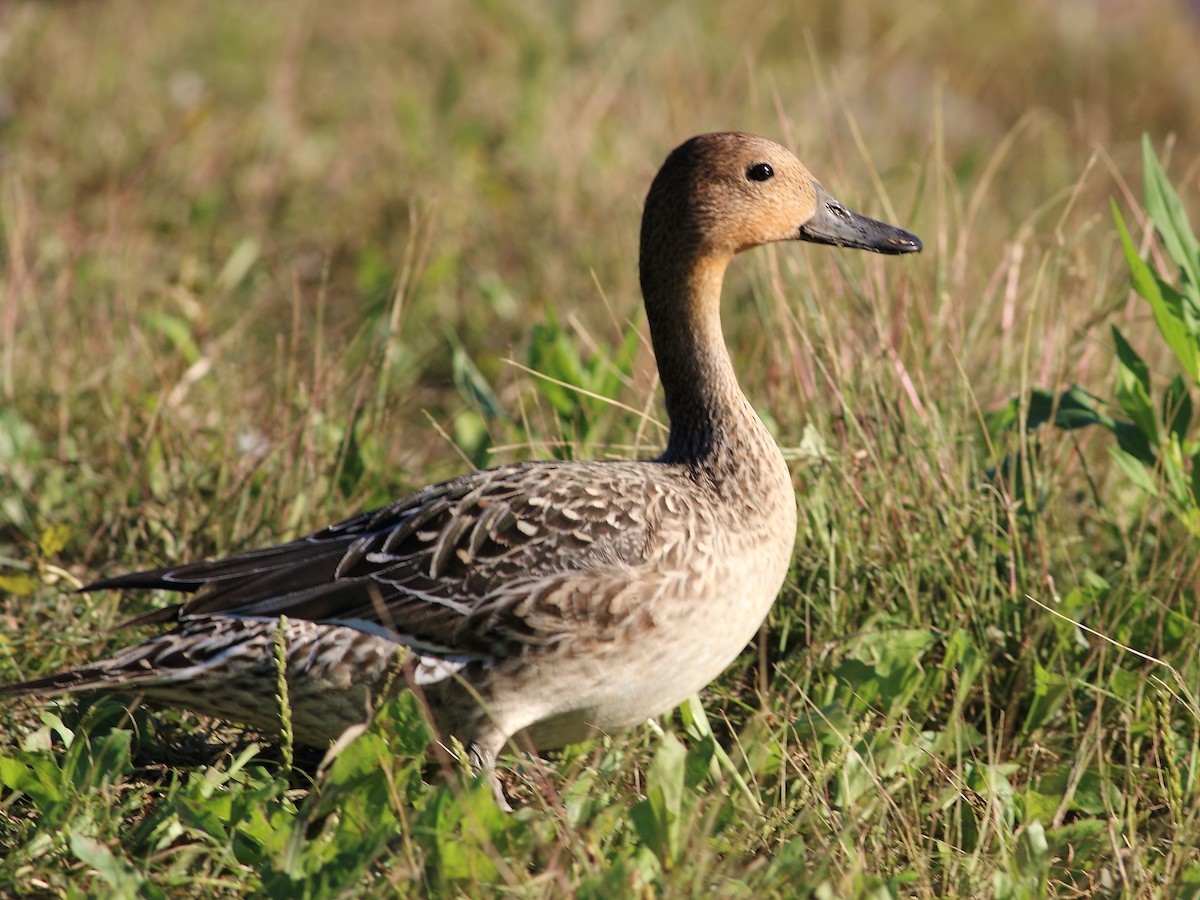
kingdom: Animalia
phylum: Chordata
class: Aves
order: Anseriformes
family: Anatidae
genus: Anas
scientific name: Anas acuta
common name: Northern pintail
